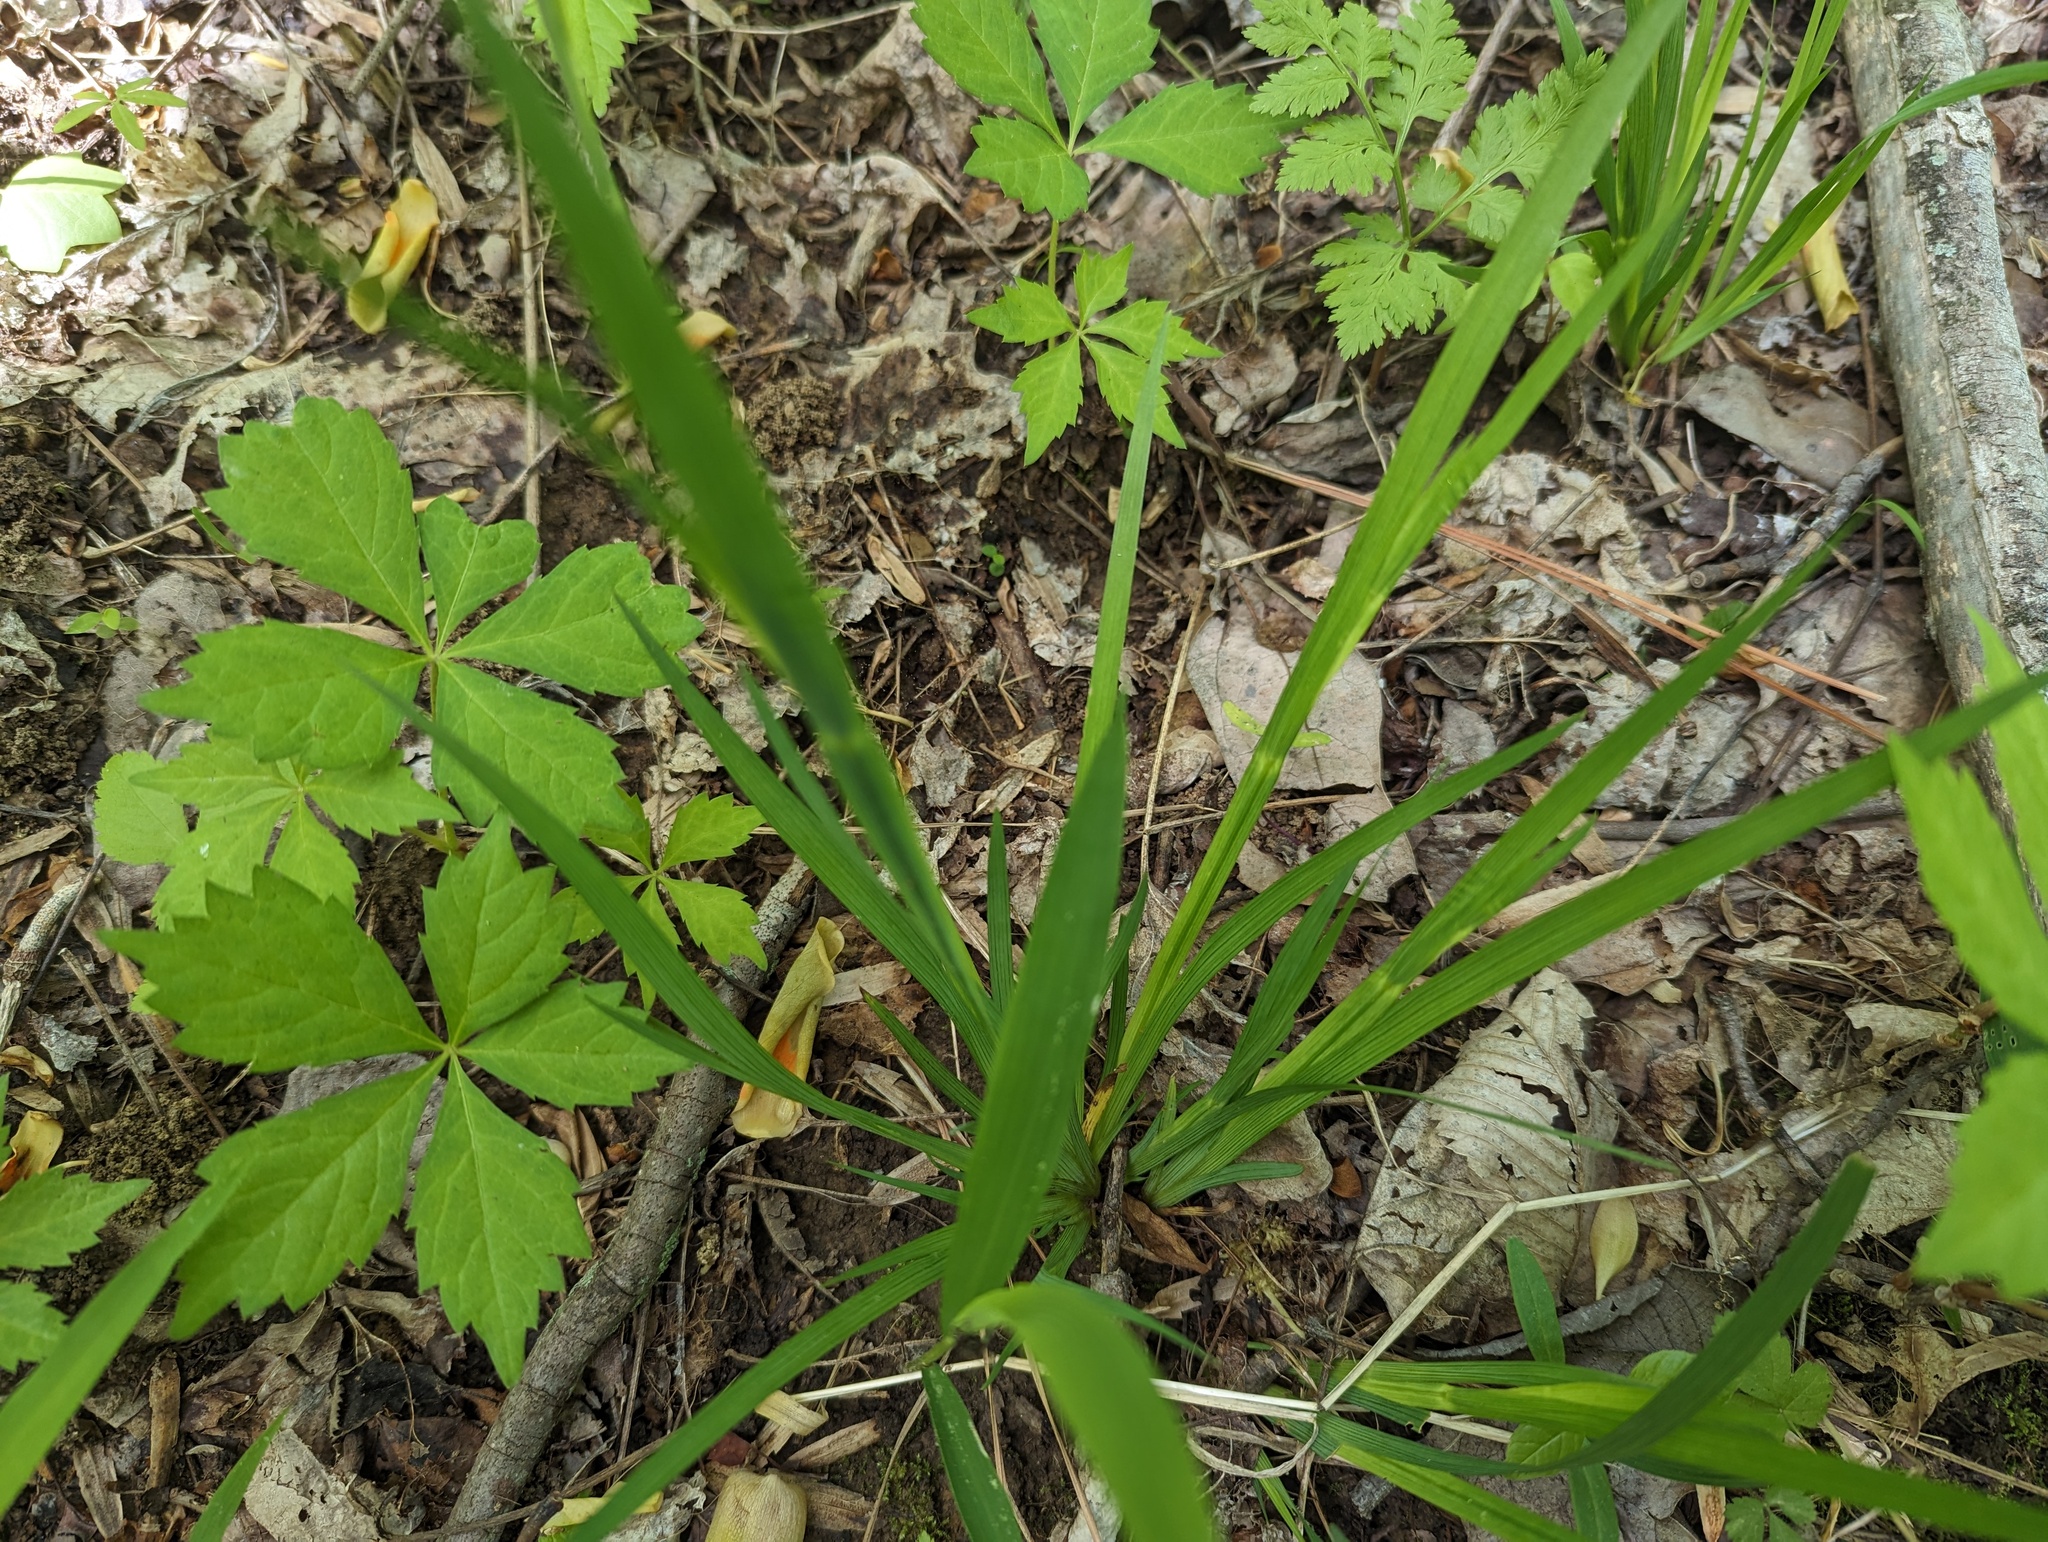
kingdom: Plantae
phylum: Tracheophyta
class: Liliopsida
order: Asparagales
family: Iridaceae
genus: Sisyrinchium
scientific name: Sisyrinchium angustifolium
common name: Narrow-leaf blue-eyed-grass
